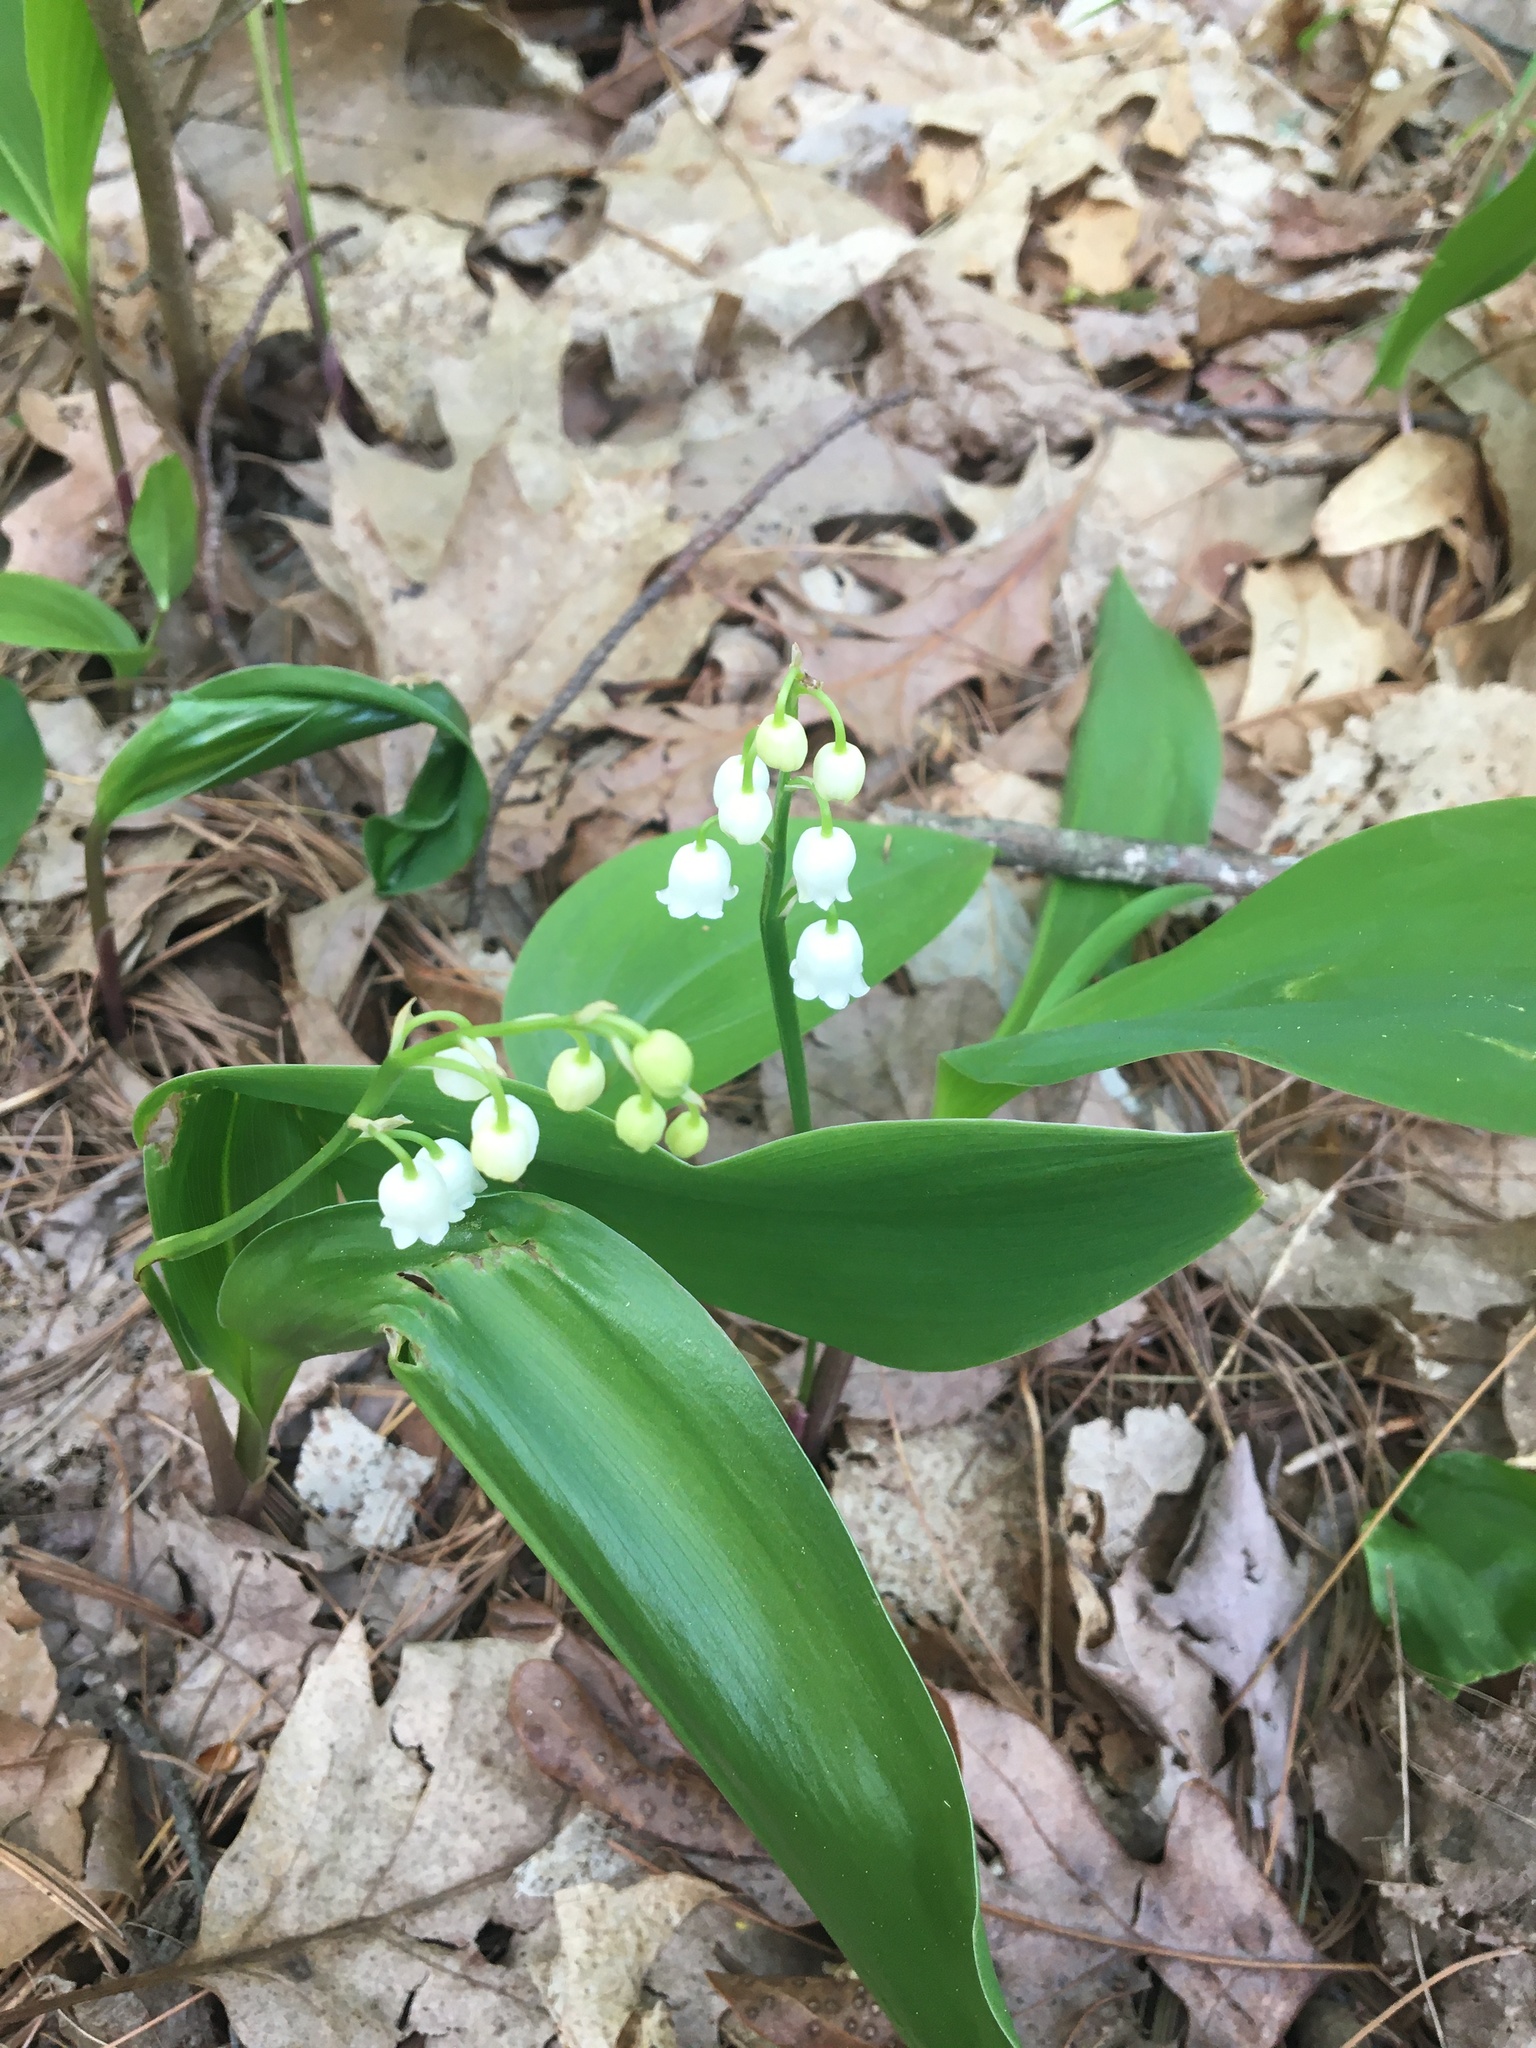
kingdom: Plantae
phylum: Tracheophyta
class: Liliopsida
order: Asparagales
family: Asparagaceae
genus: Convallaria
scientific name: Convallaria majalis
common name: Lily-of-the-valley
